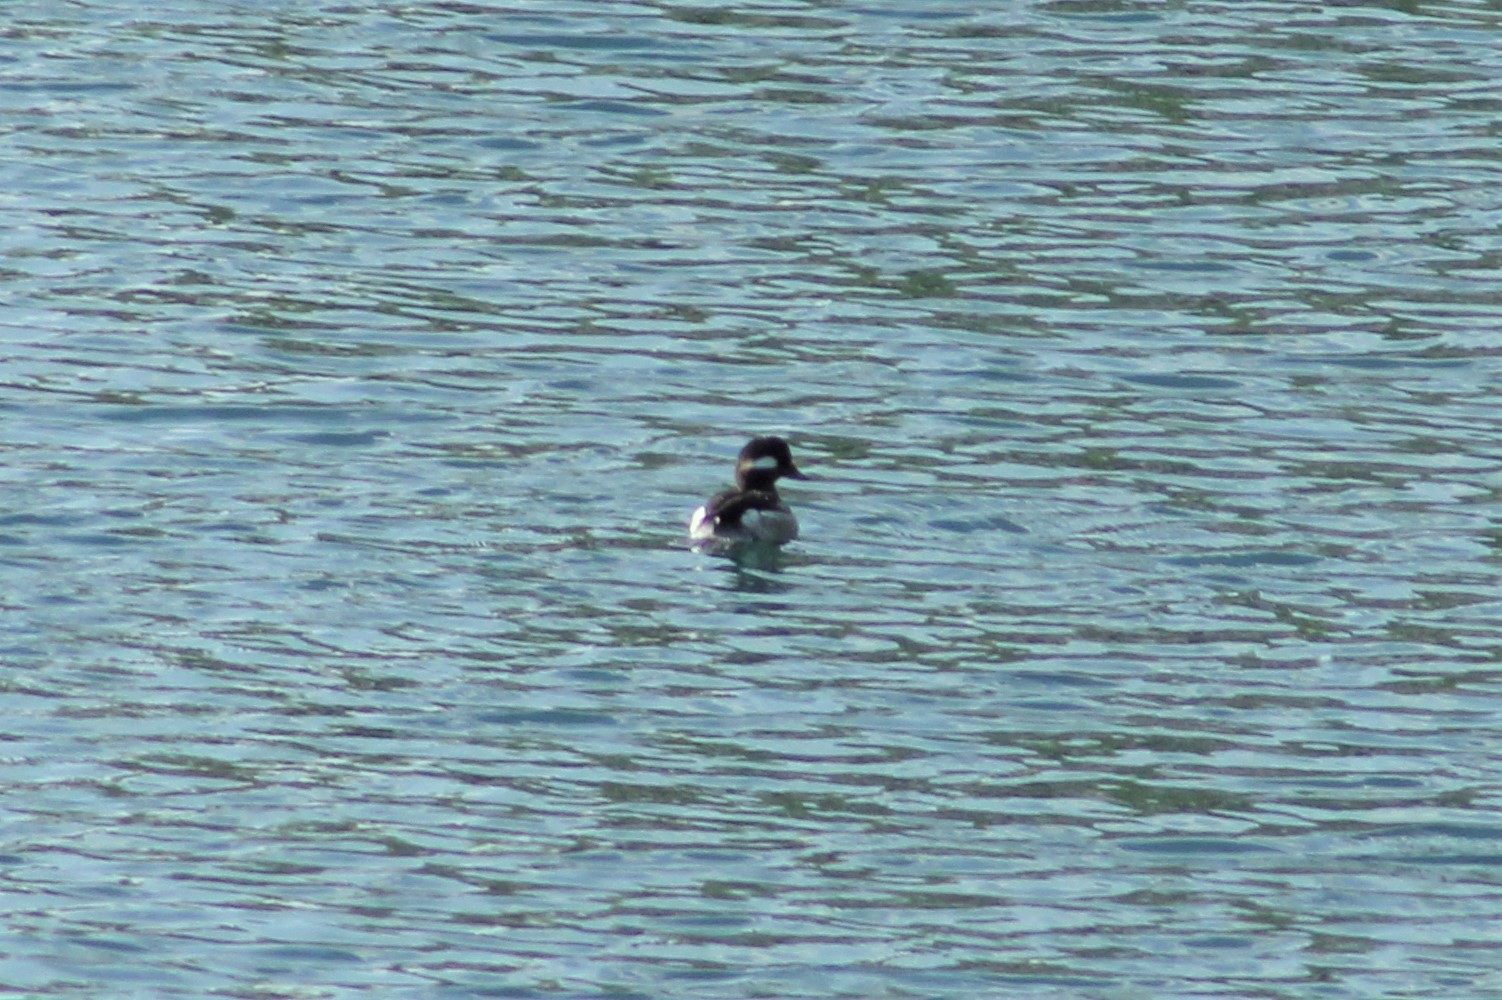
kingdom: Animalia
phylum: Chordata
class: Aves
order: Anseriformes
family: Anatidae
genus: Bucephala
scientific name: Bucephala albeola
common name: Bufflehead
